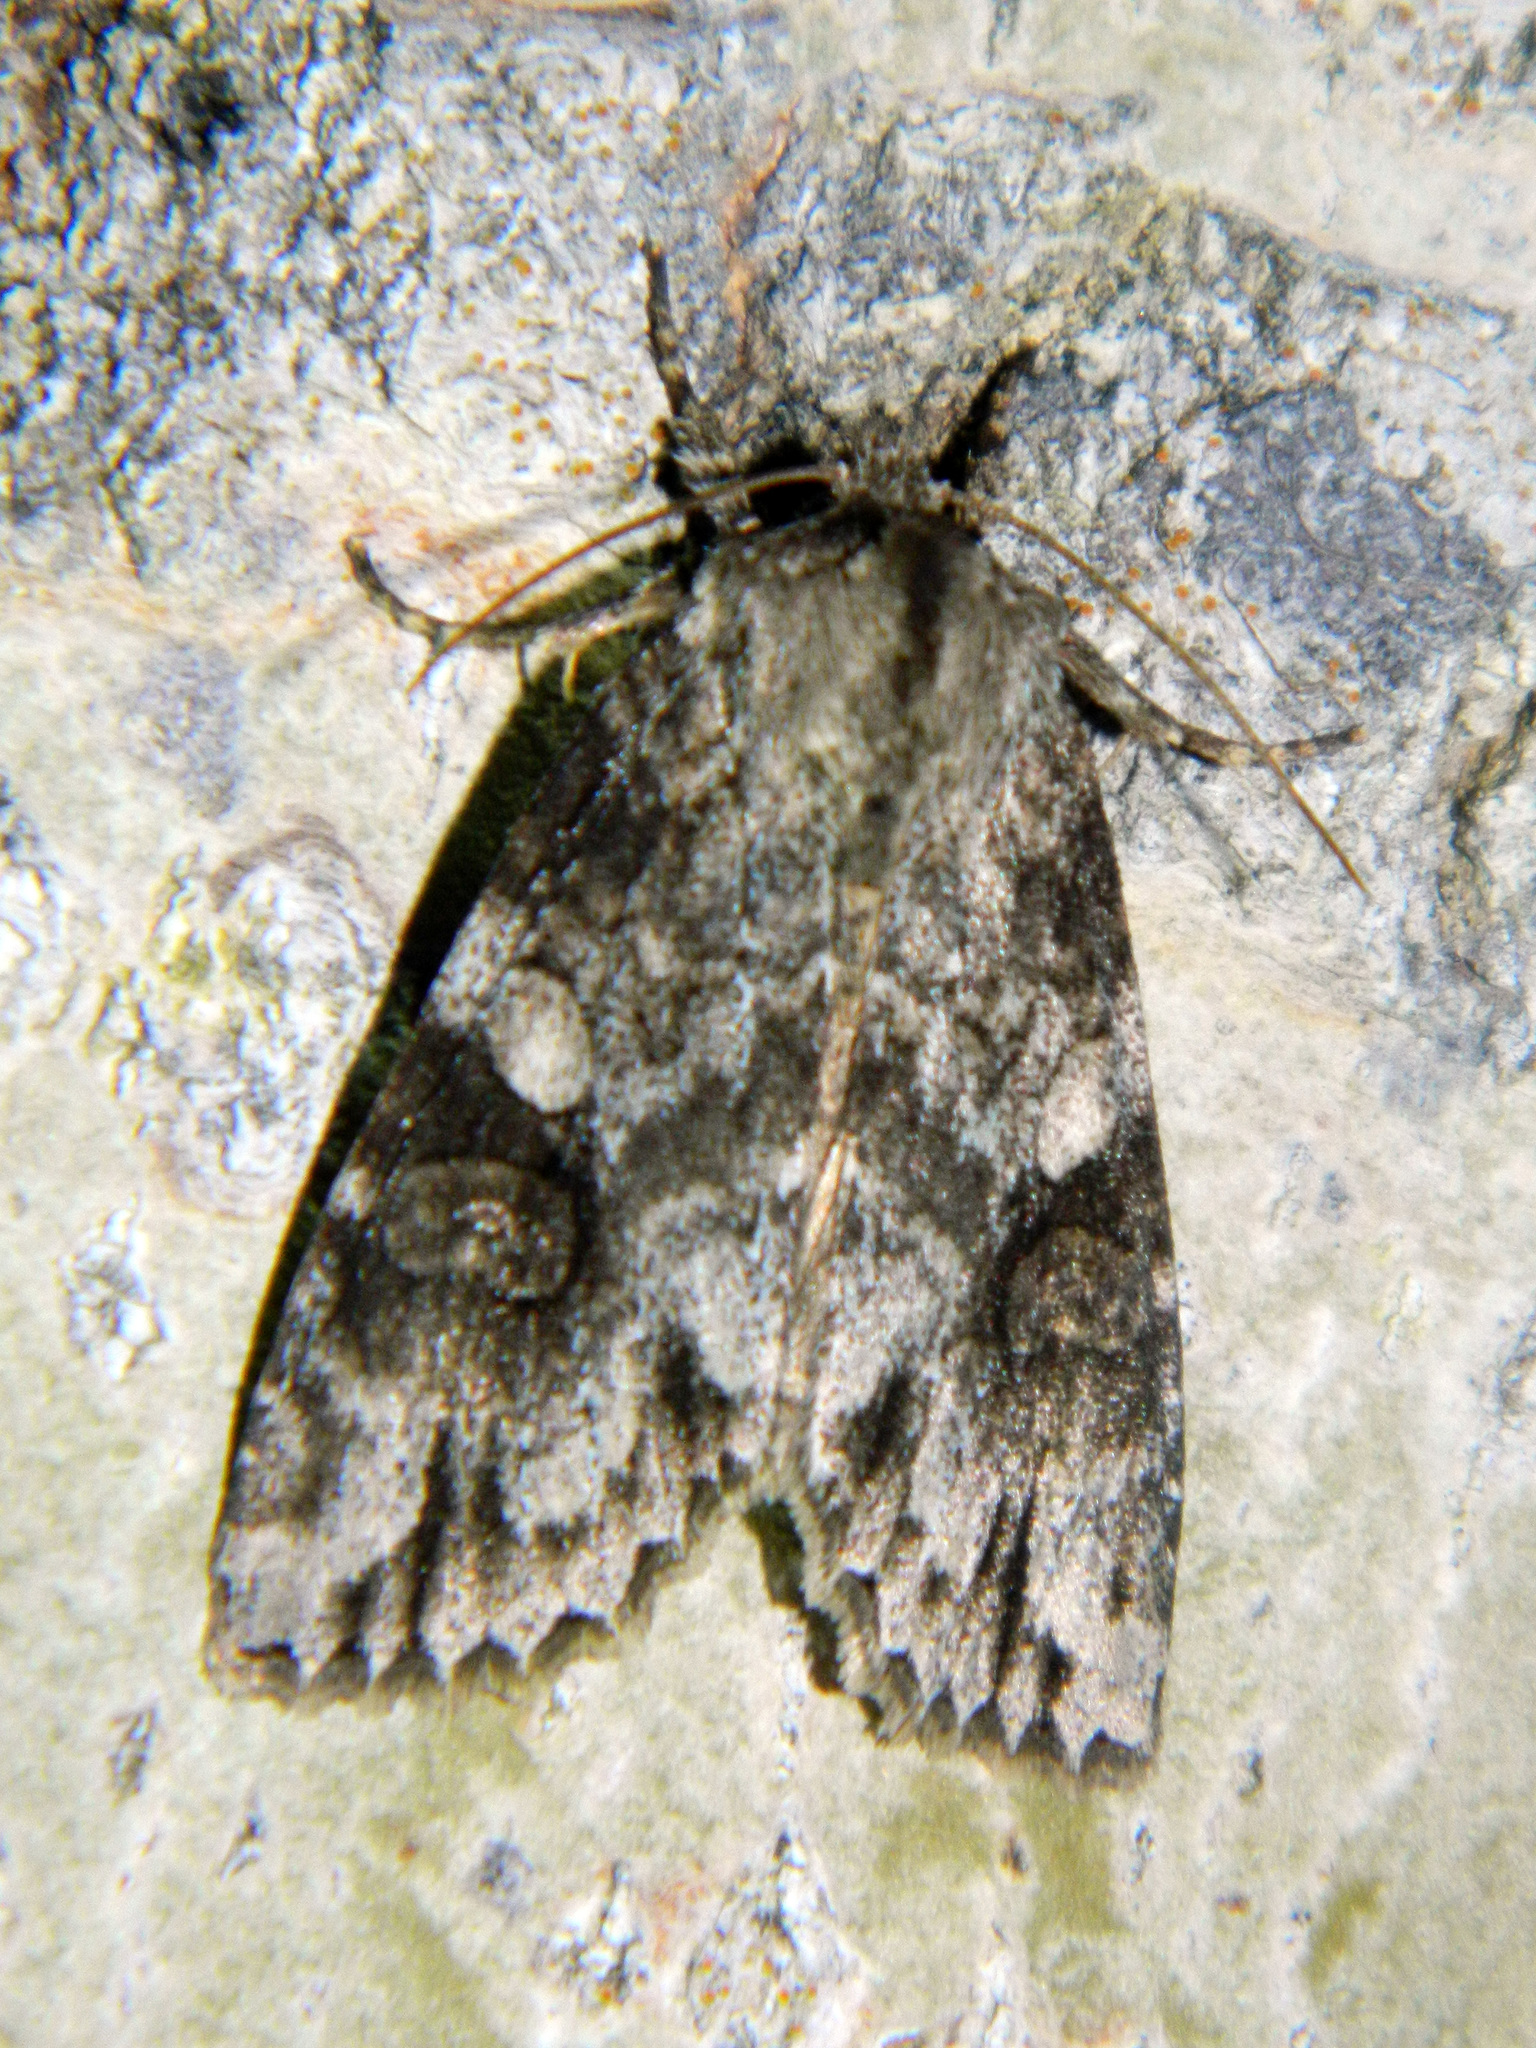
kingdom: Animalia
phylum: Arthropoda
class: Insecta
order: Lepidoptera
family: Noctuidae
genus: Achatia
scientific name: Achatia latex
